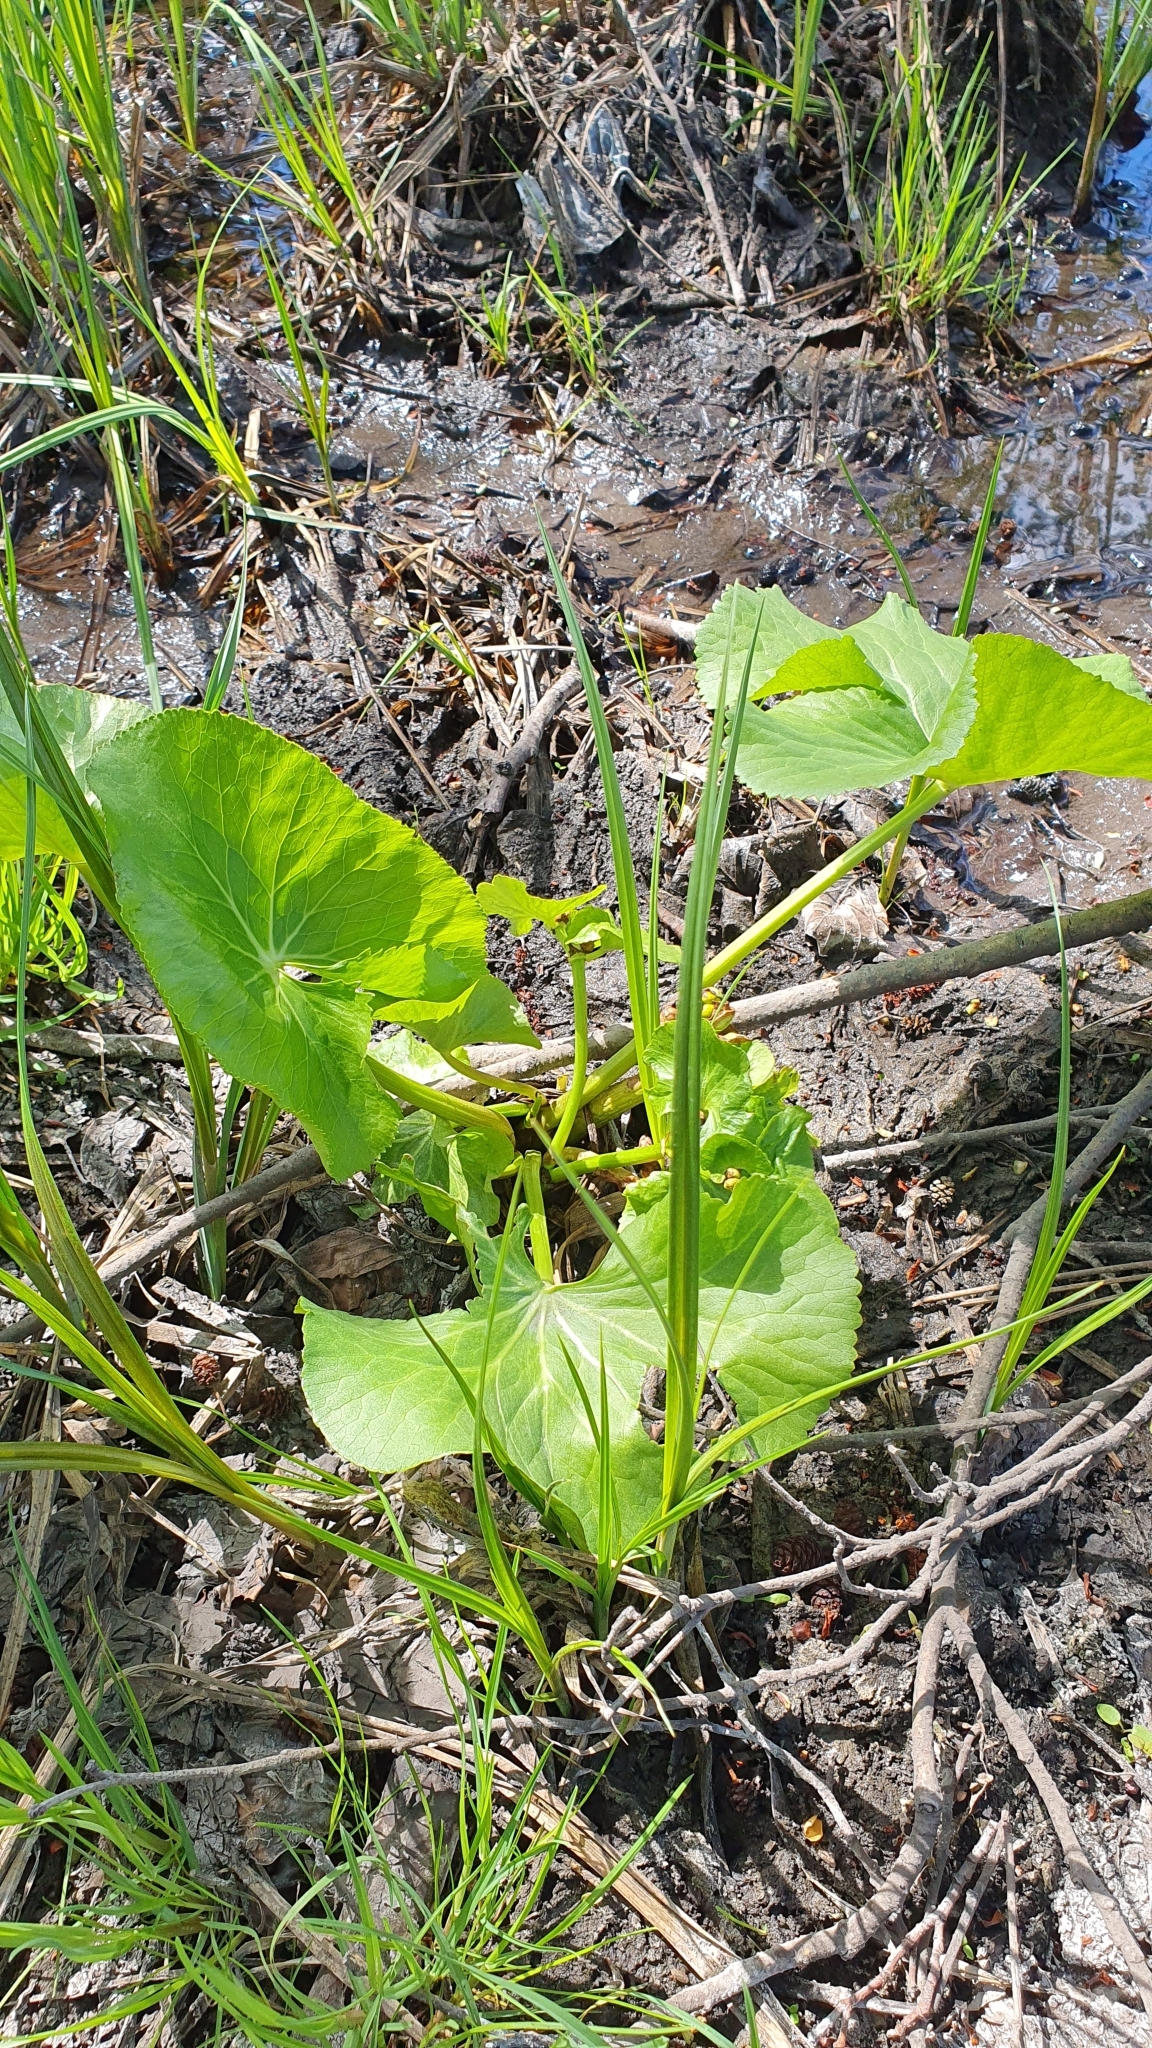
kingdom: Plantae
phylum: Tracheophyta
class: Magnoliopsida
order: Ranunculales
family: Ranunculaceae
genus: Caltha
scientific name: Caltha palustris
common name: Marsh marigold
